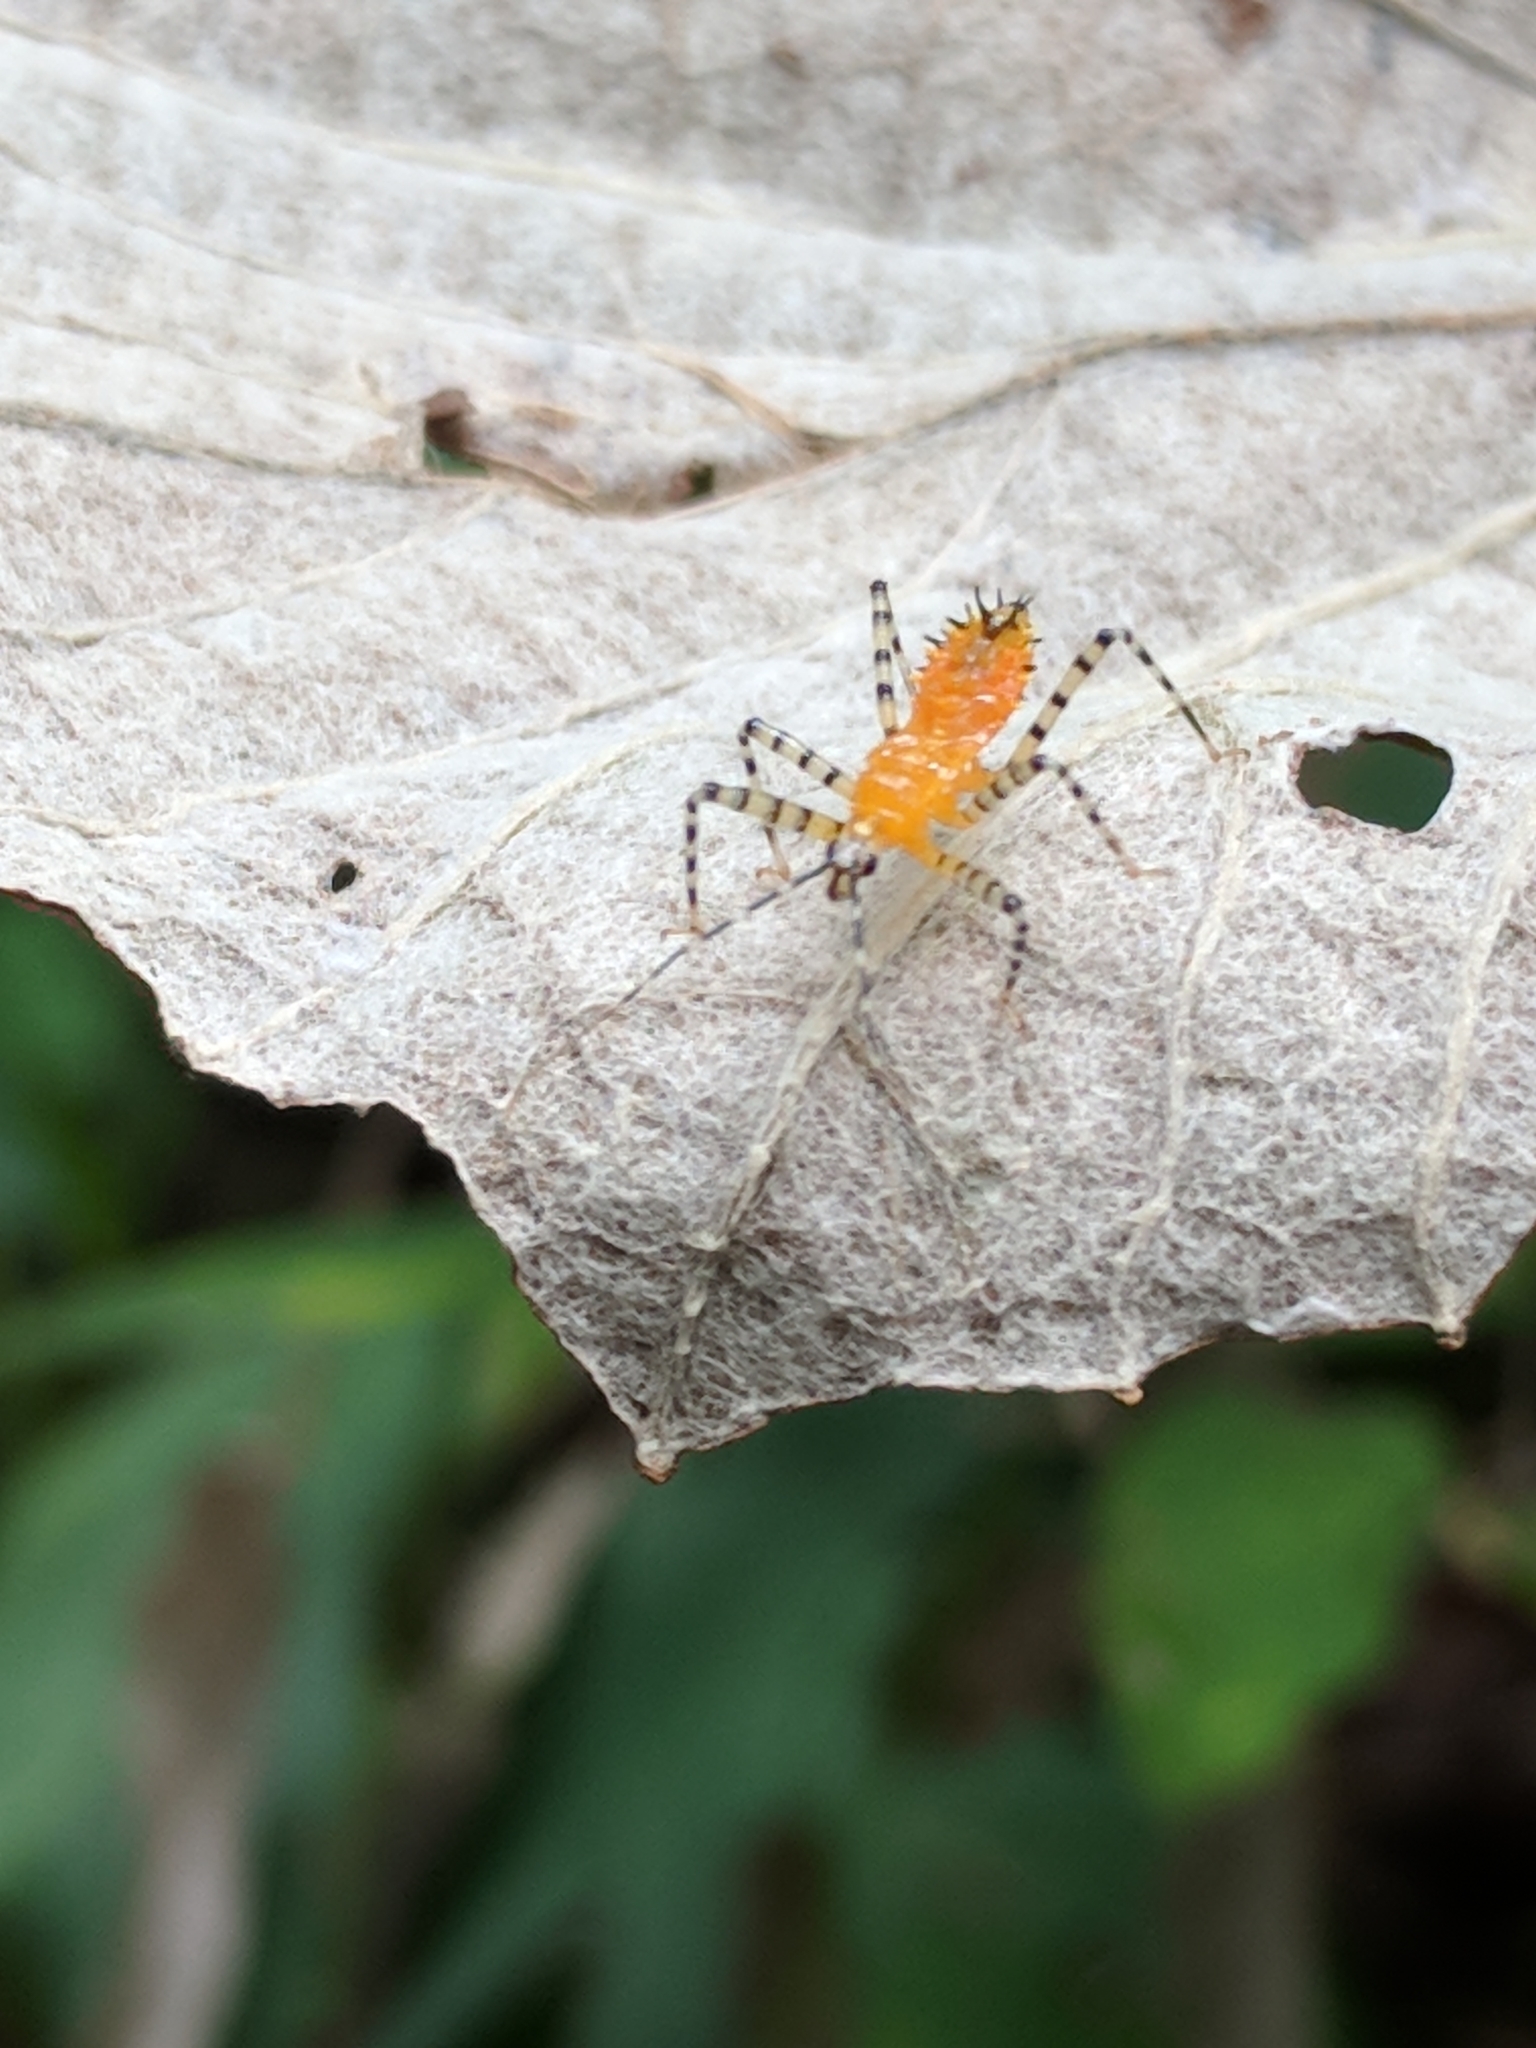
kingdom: Animalia
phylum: Arthropoda
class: Insecta
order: Hemiptera
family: Reduviidae
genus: Pselliopus
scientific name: Pselliopus barberi
